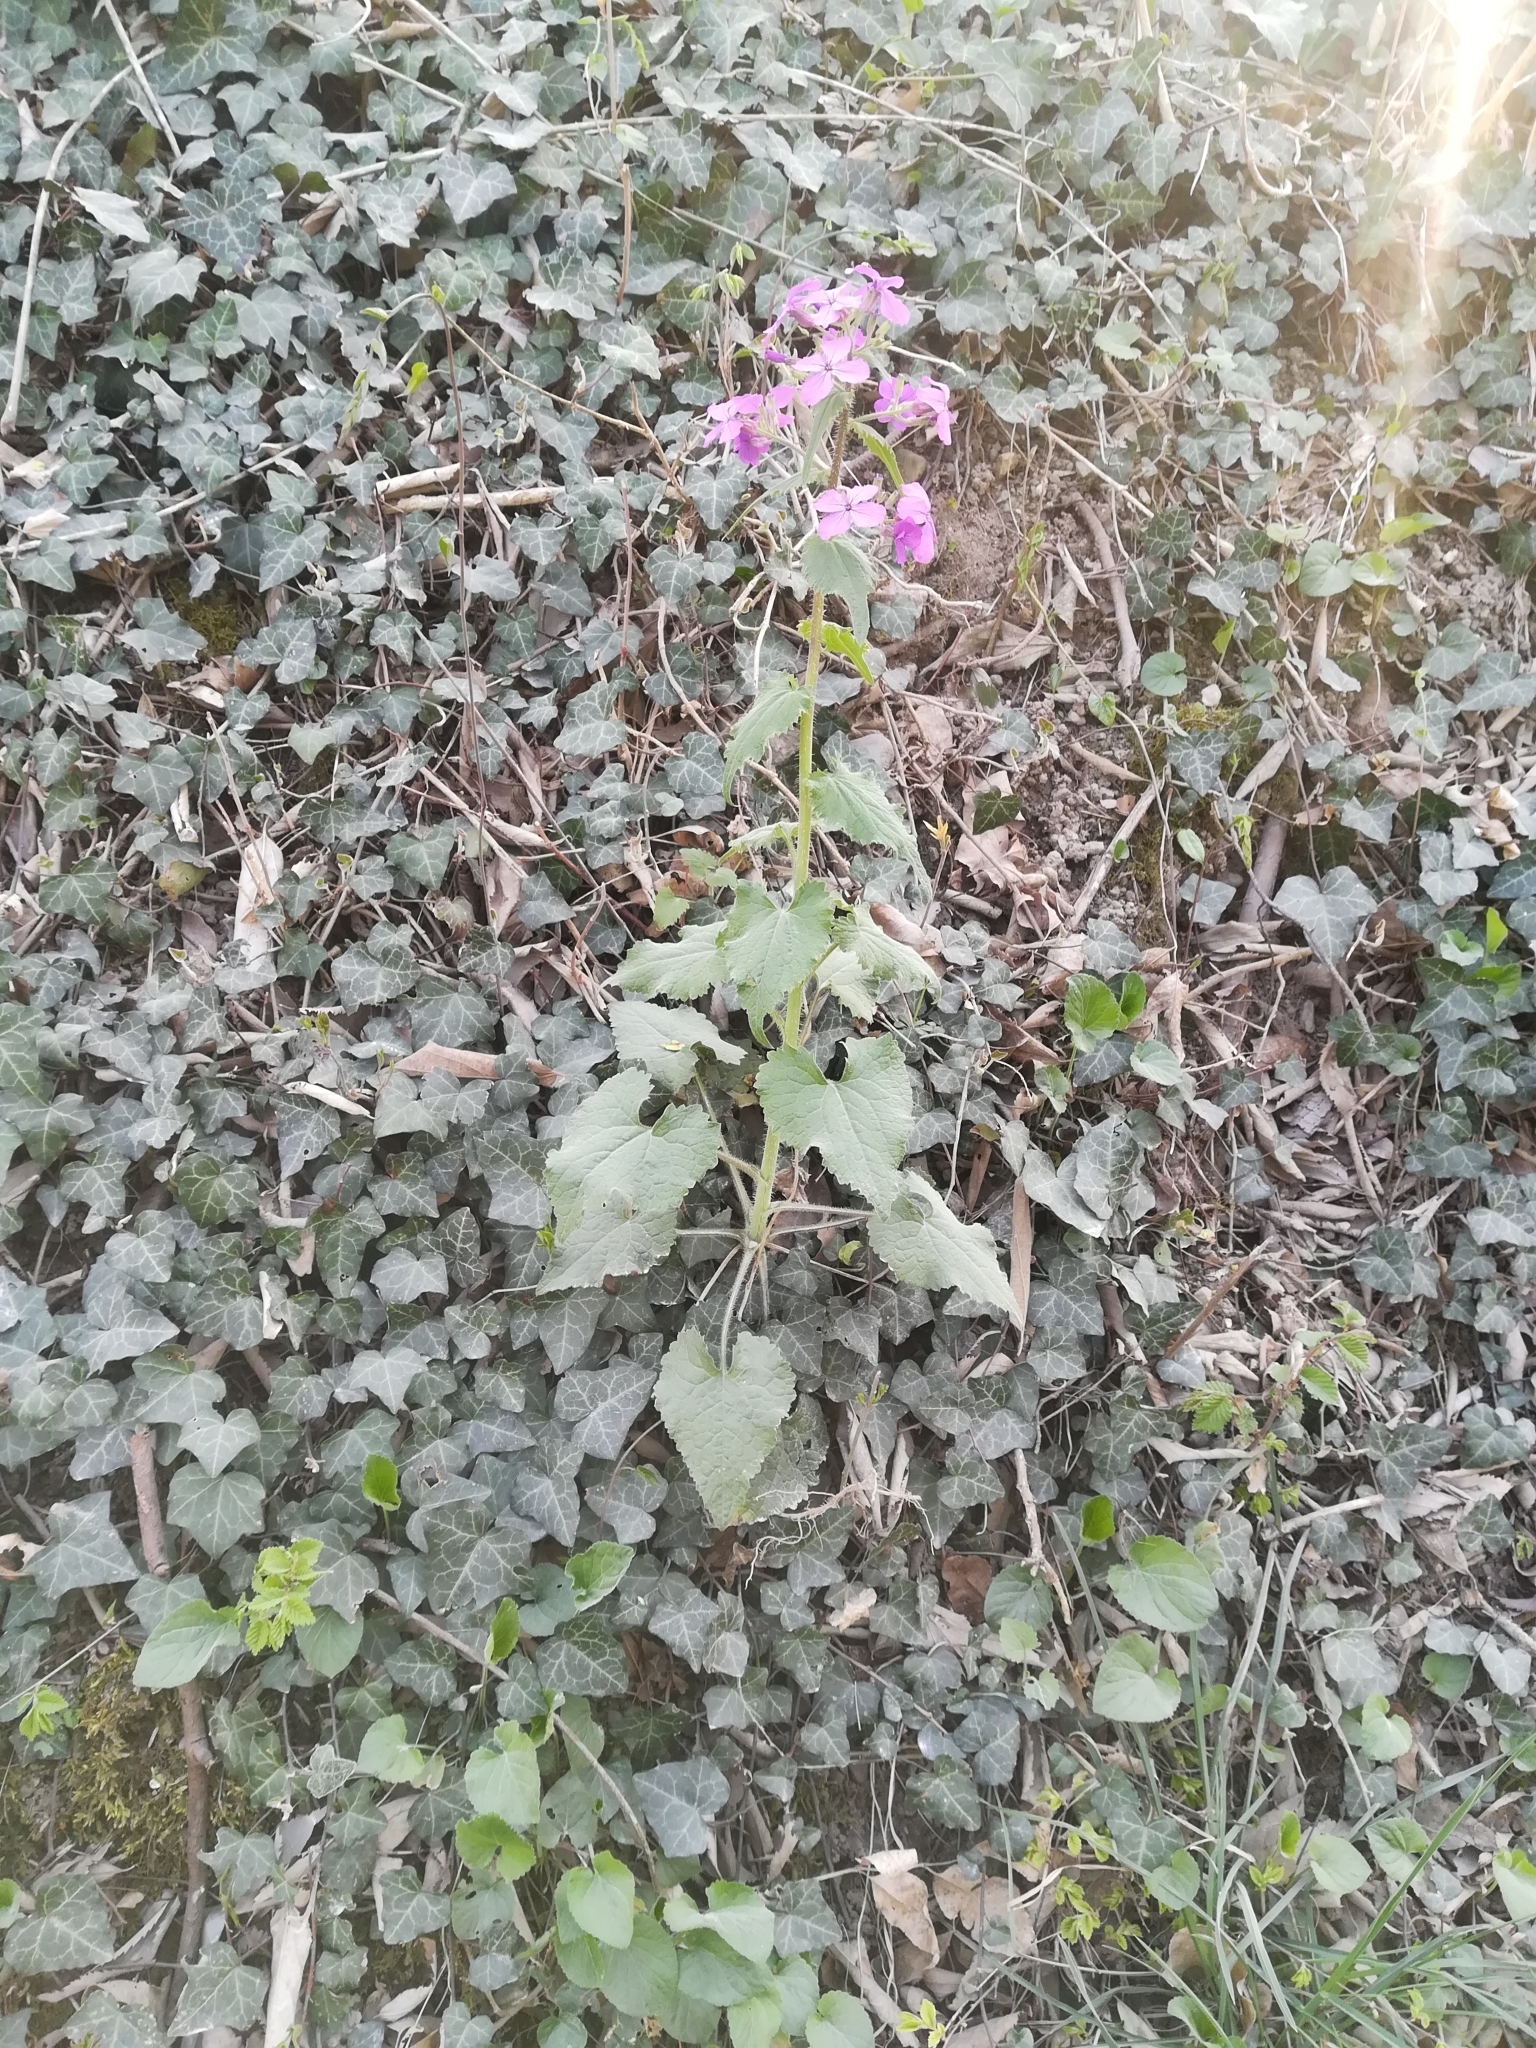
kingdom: Plantae
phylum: Tracheophyta
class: Magnoliopsida
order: Brassicales
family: Brassicaceae
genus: Lunaria
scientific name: Lunaria annua
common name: Honesty
